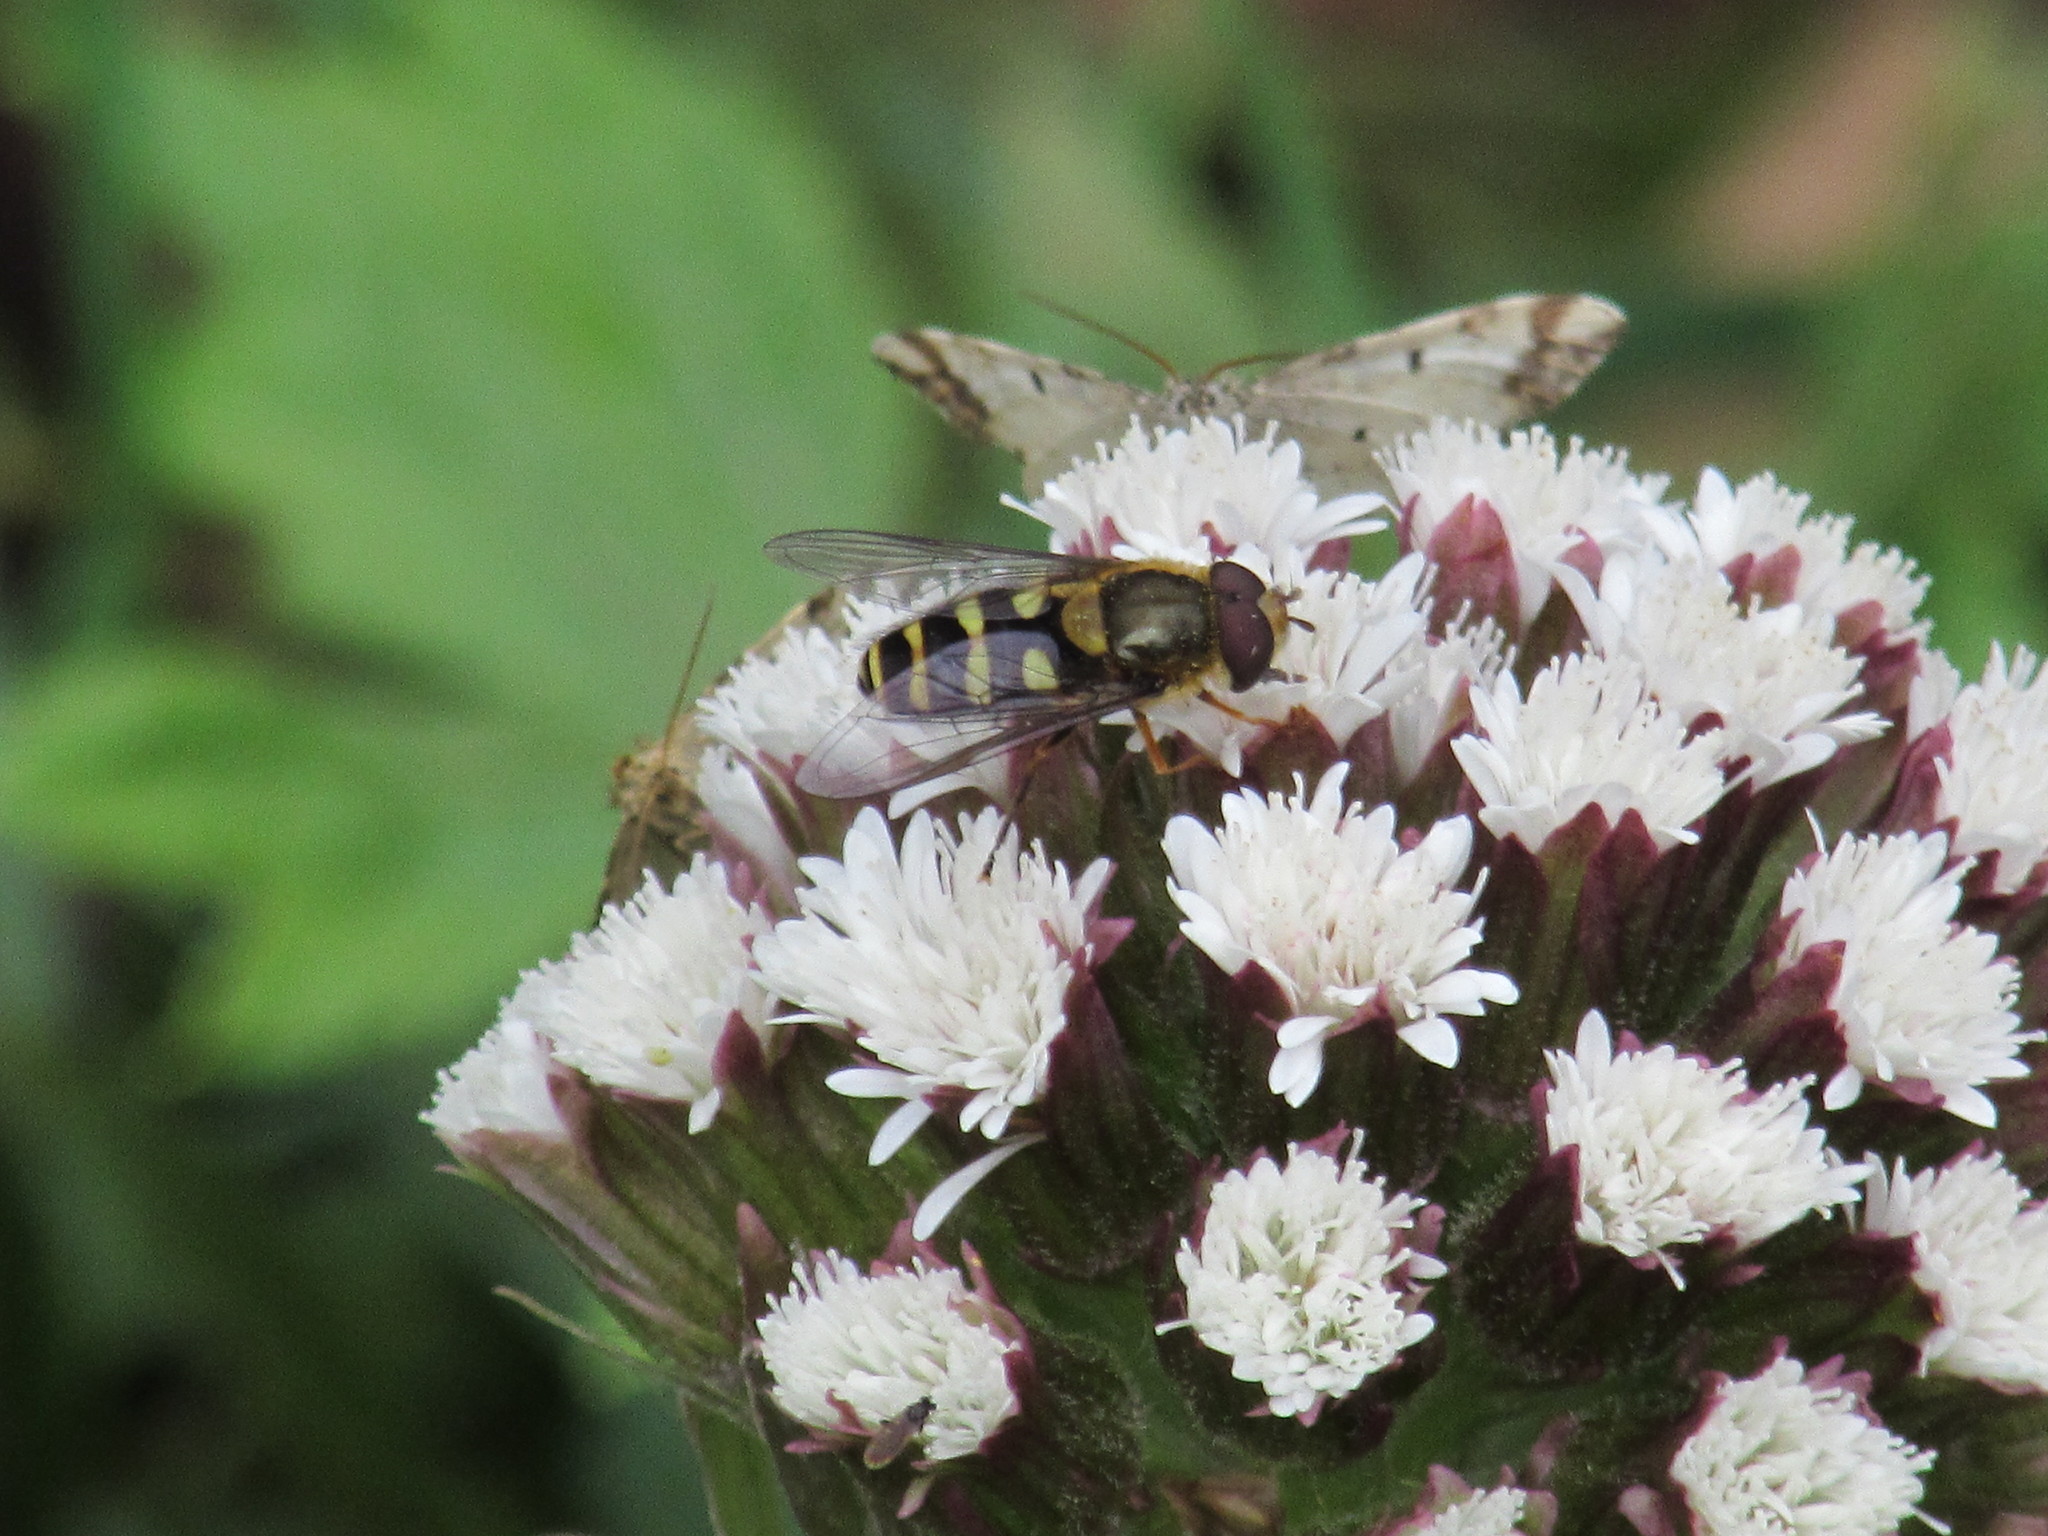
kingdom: Animalia
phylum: Arthropoda
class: Insecta
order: Diptera
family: Syrphidae
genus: Syrphus
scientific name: Syrphus opinator
